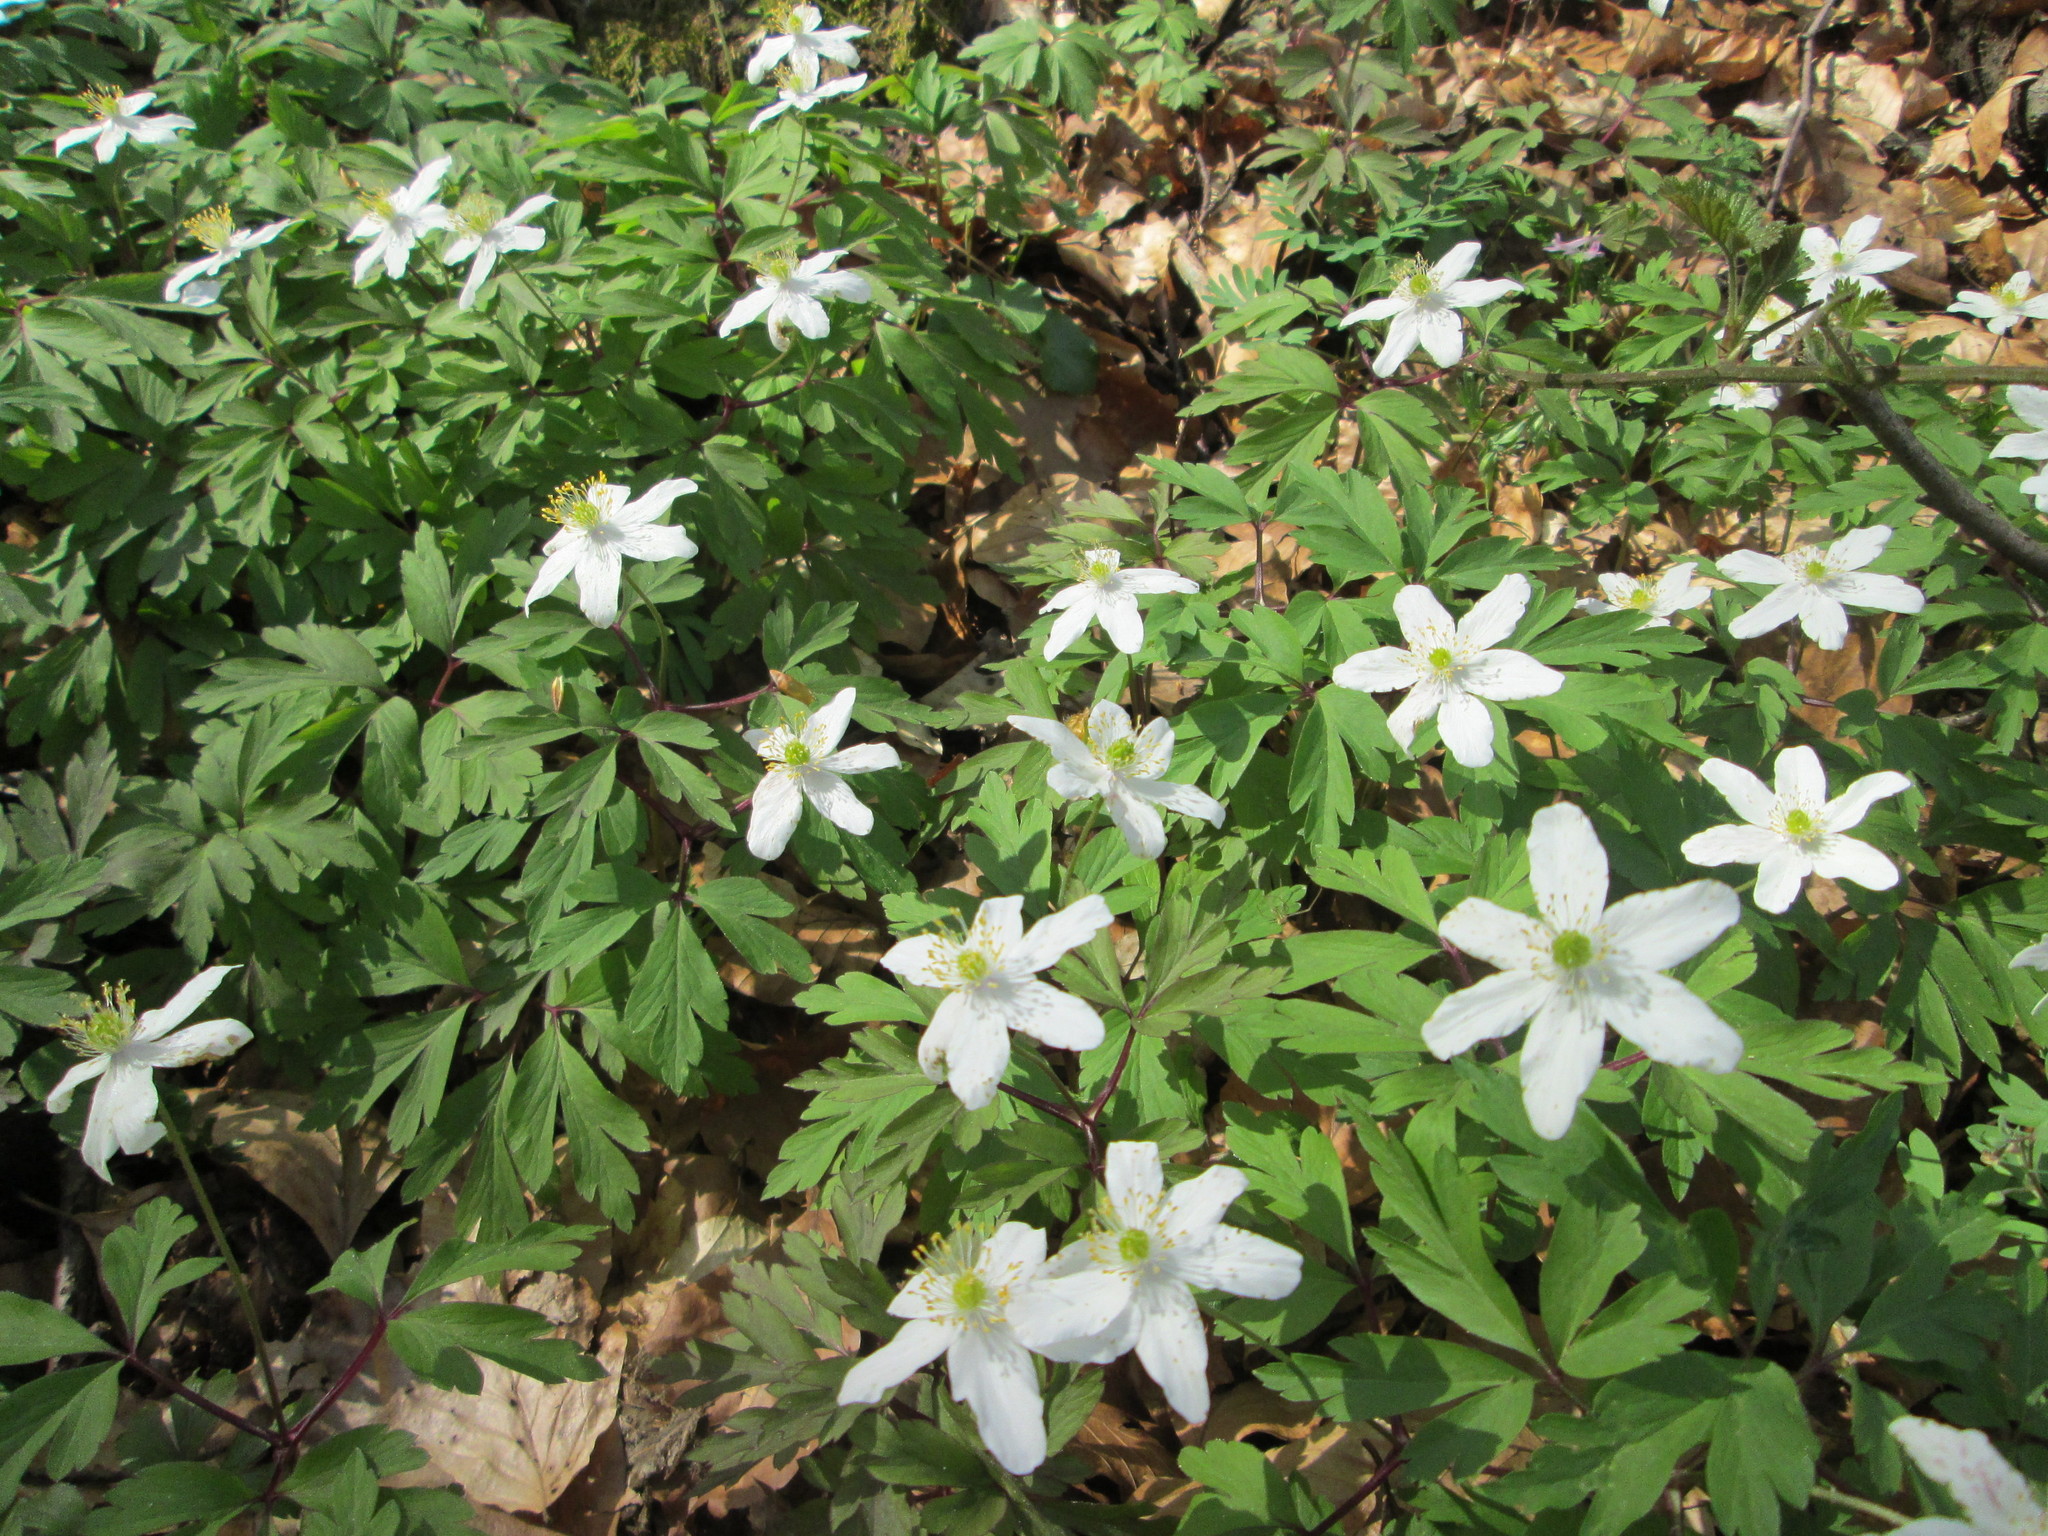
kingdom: Plantae
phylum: Tracheophyta
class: Magnoliopsida
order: Ranunculales
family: Ranunculaceae
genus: Anemone
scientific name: Anemone nemorosa
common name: Wood anemone
